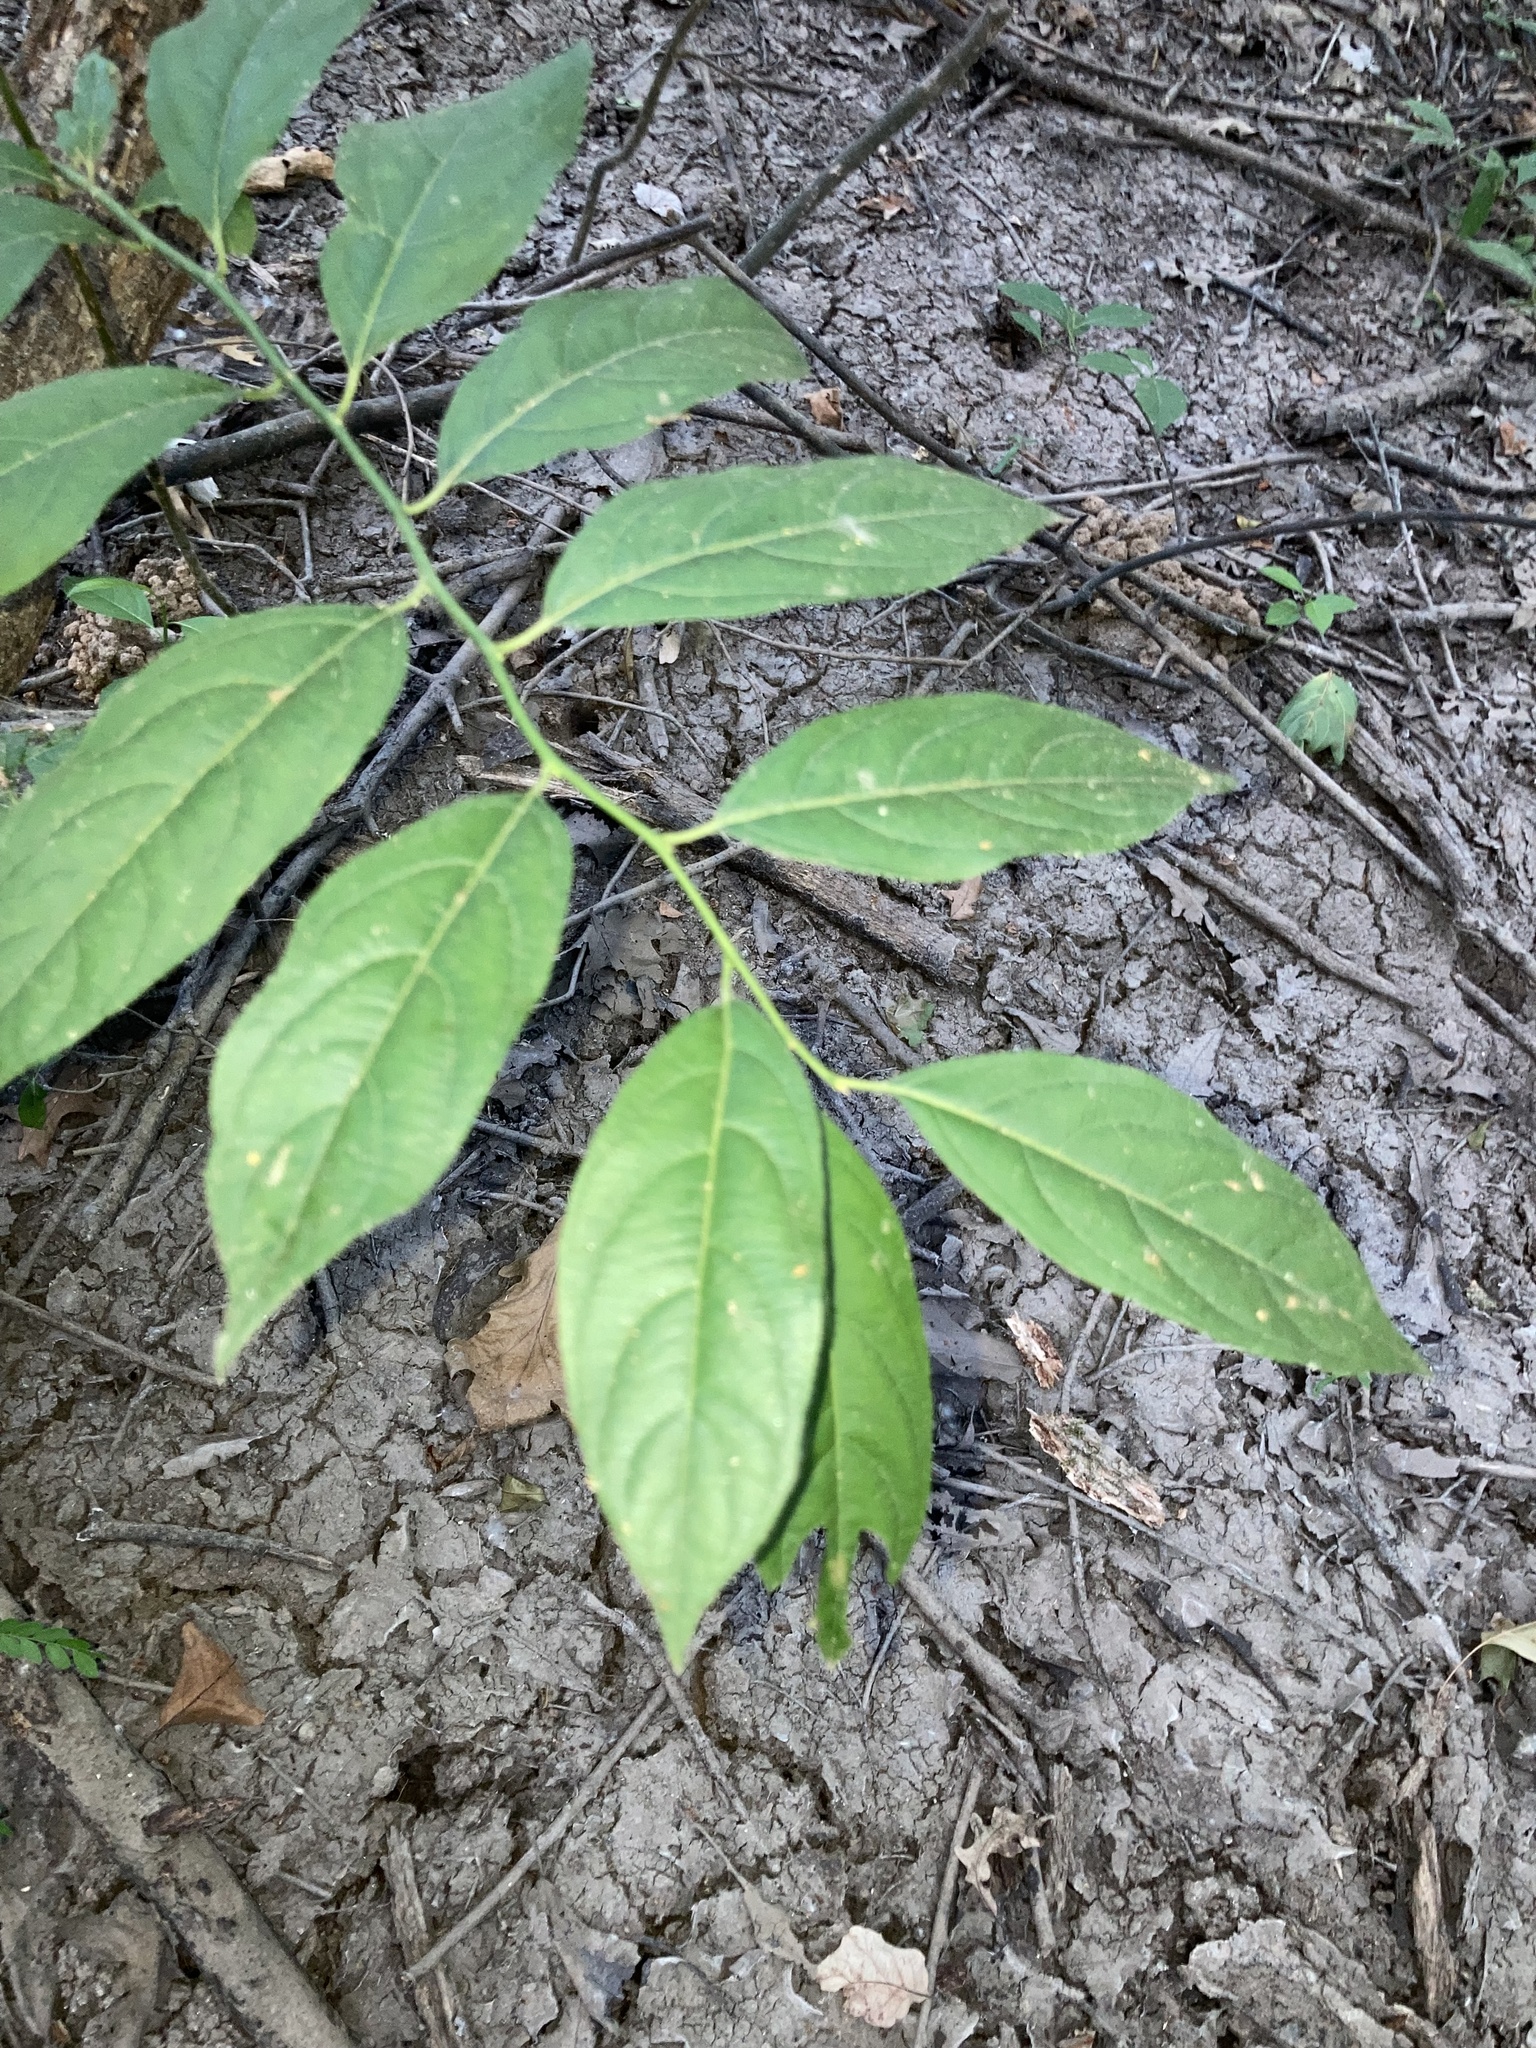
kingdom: Plantae
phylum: Tracheophyta
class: Magnoliopsida
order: Saxifragales
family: Iteaceae
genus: Itea
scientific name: Itea virginica
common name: Sweetspire
